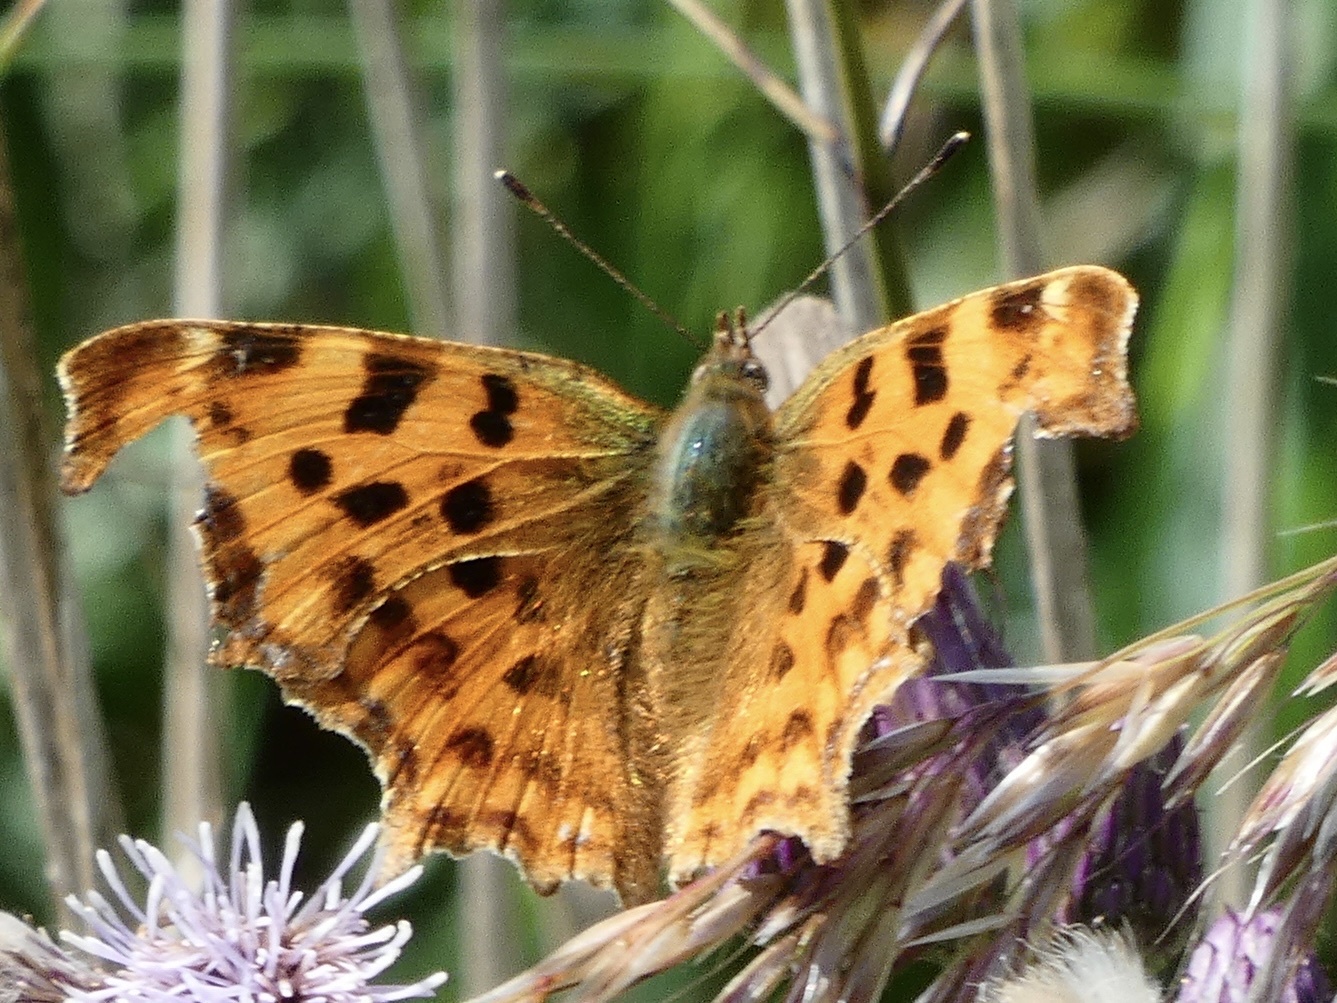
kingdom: Animalia
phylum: Arthropoda
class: Insecta
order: Lepidoptera
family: Nymphalidae
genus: Polygonia
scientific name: Polygonia c-album
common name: Comma
